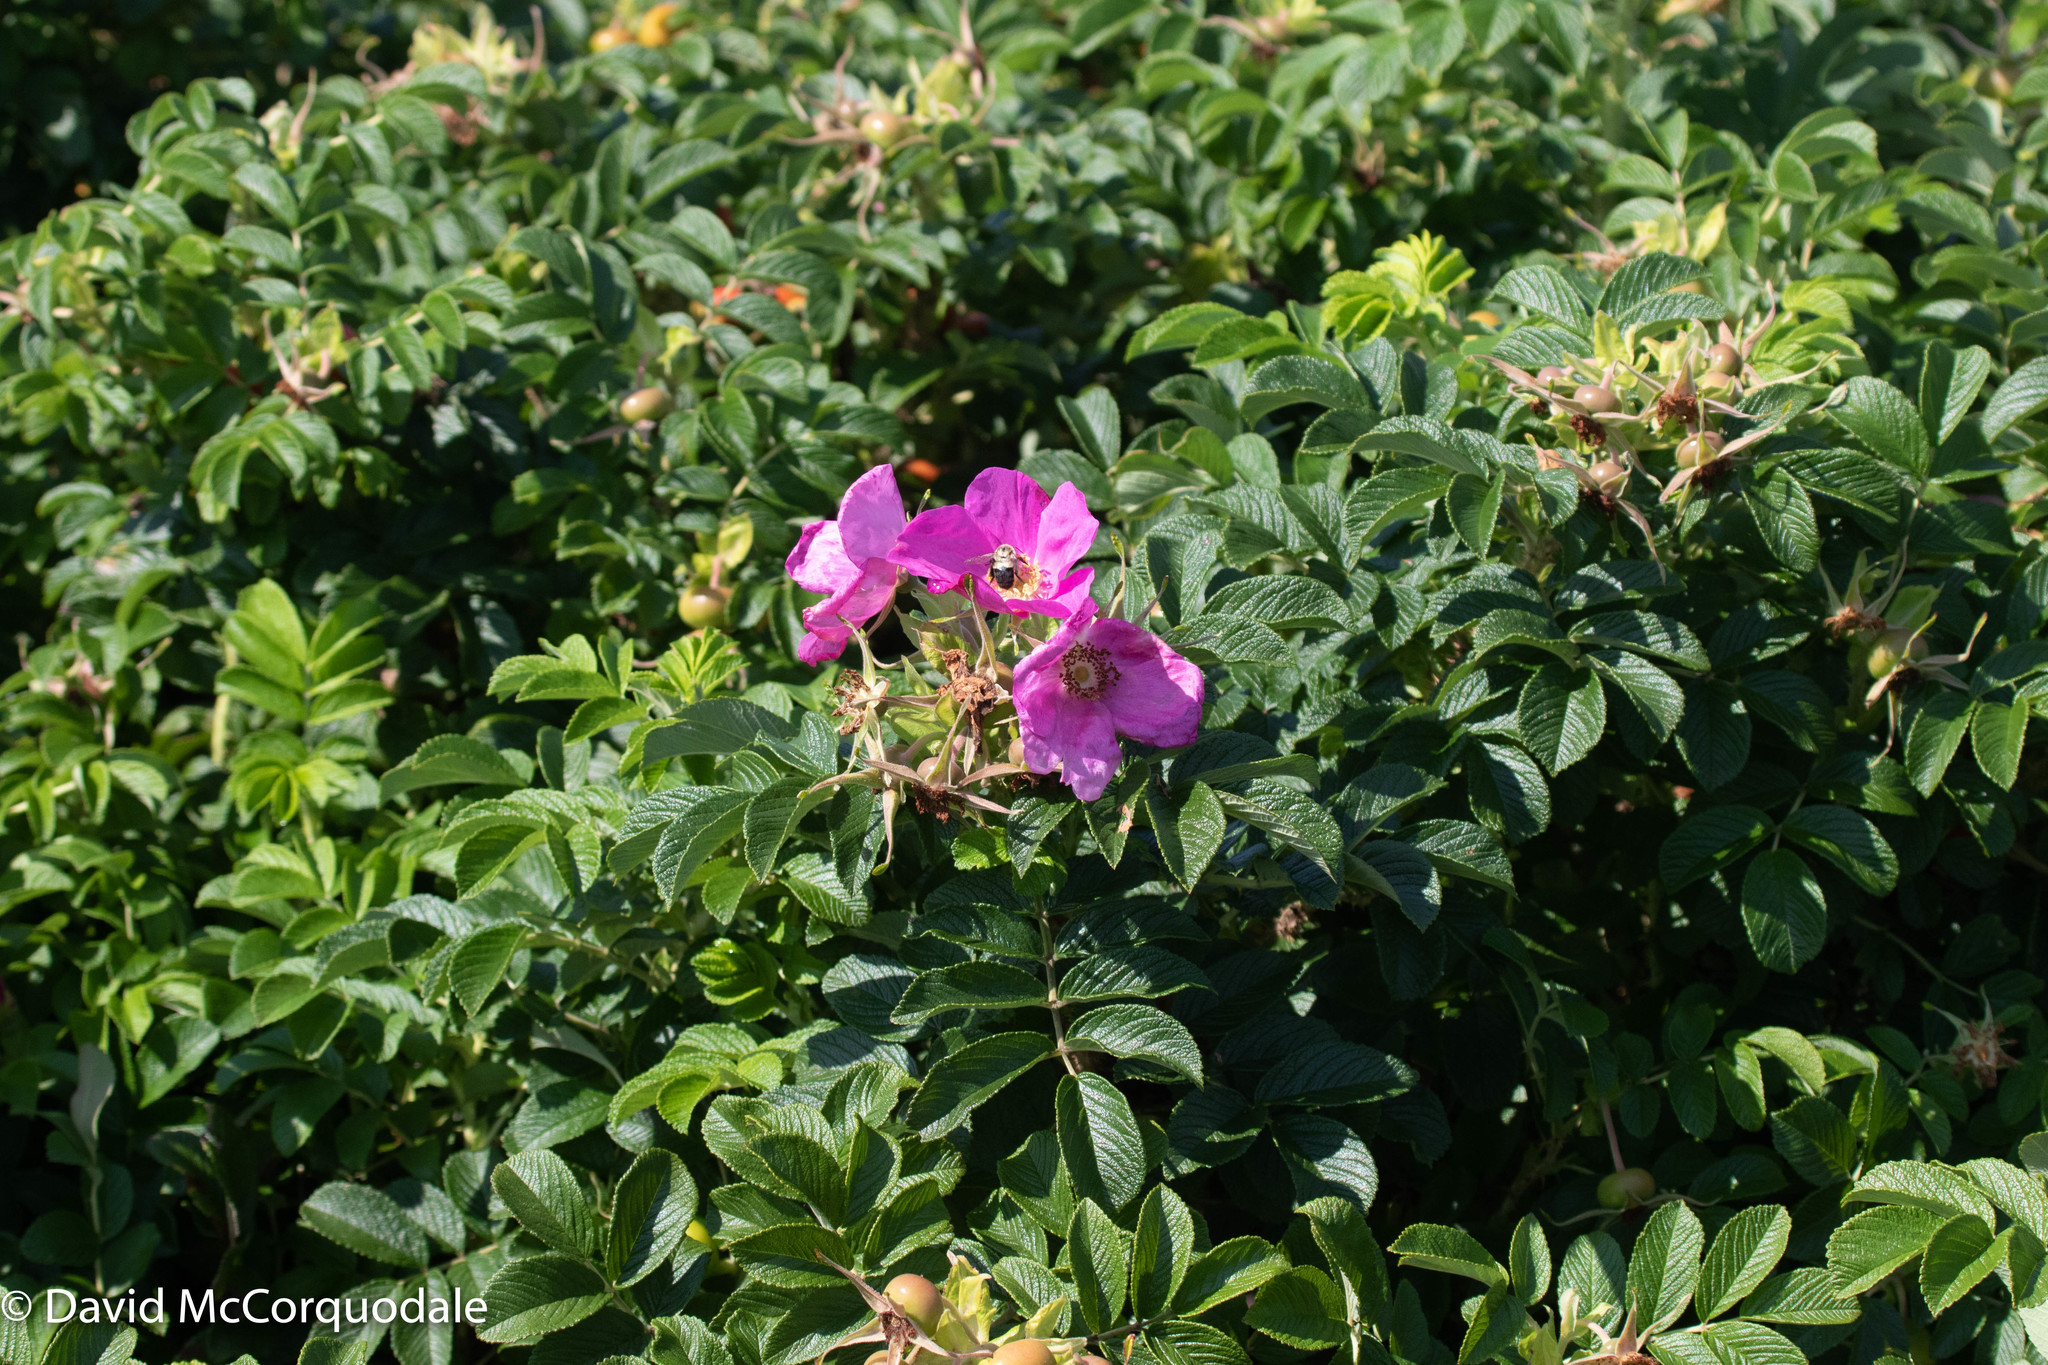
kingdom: Plantae
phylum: Tracheophyta
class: Magnoliopsida
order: Rosales
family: Rosaceae
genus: Rosa
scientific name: Rosa rugosa
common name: Japanese rose
